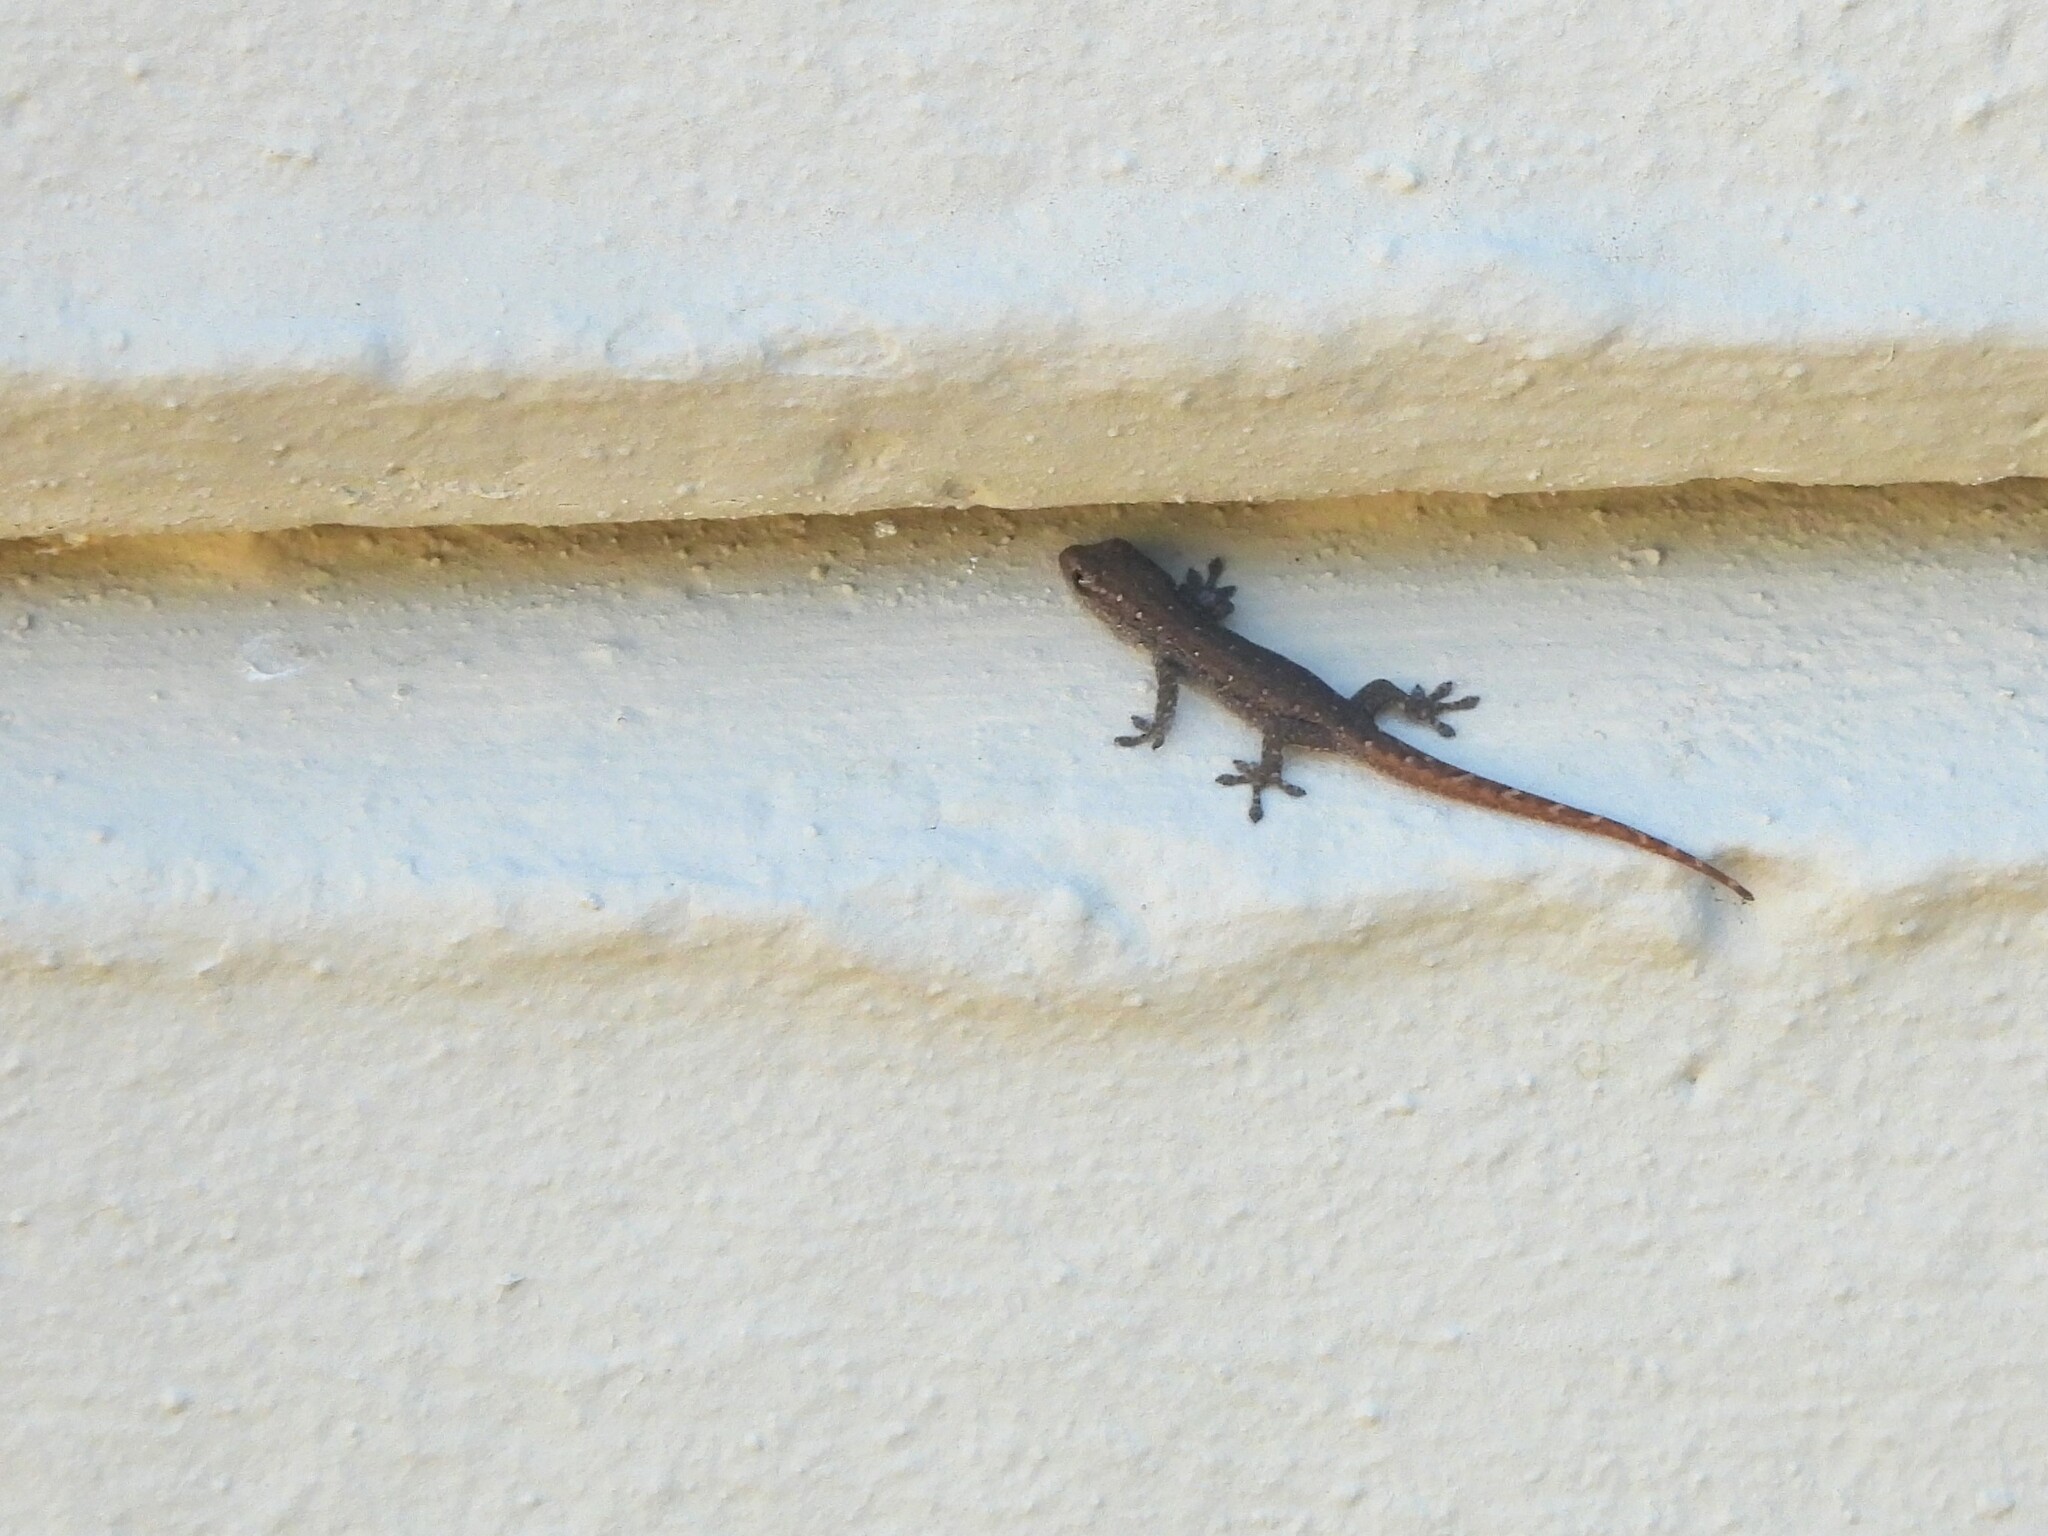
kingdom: Animalia
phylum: Chordata
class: Squamata
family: Gekkonidae
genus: Lygodactylus
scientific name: Lygodactylus capensis
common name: Cape dwarf gecko
